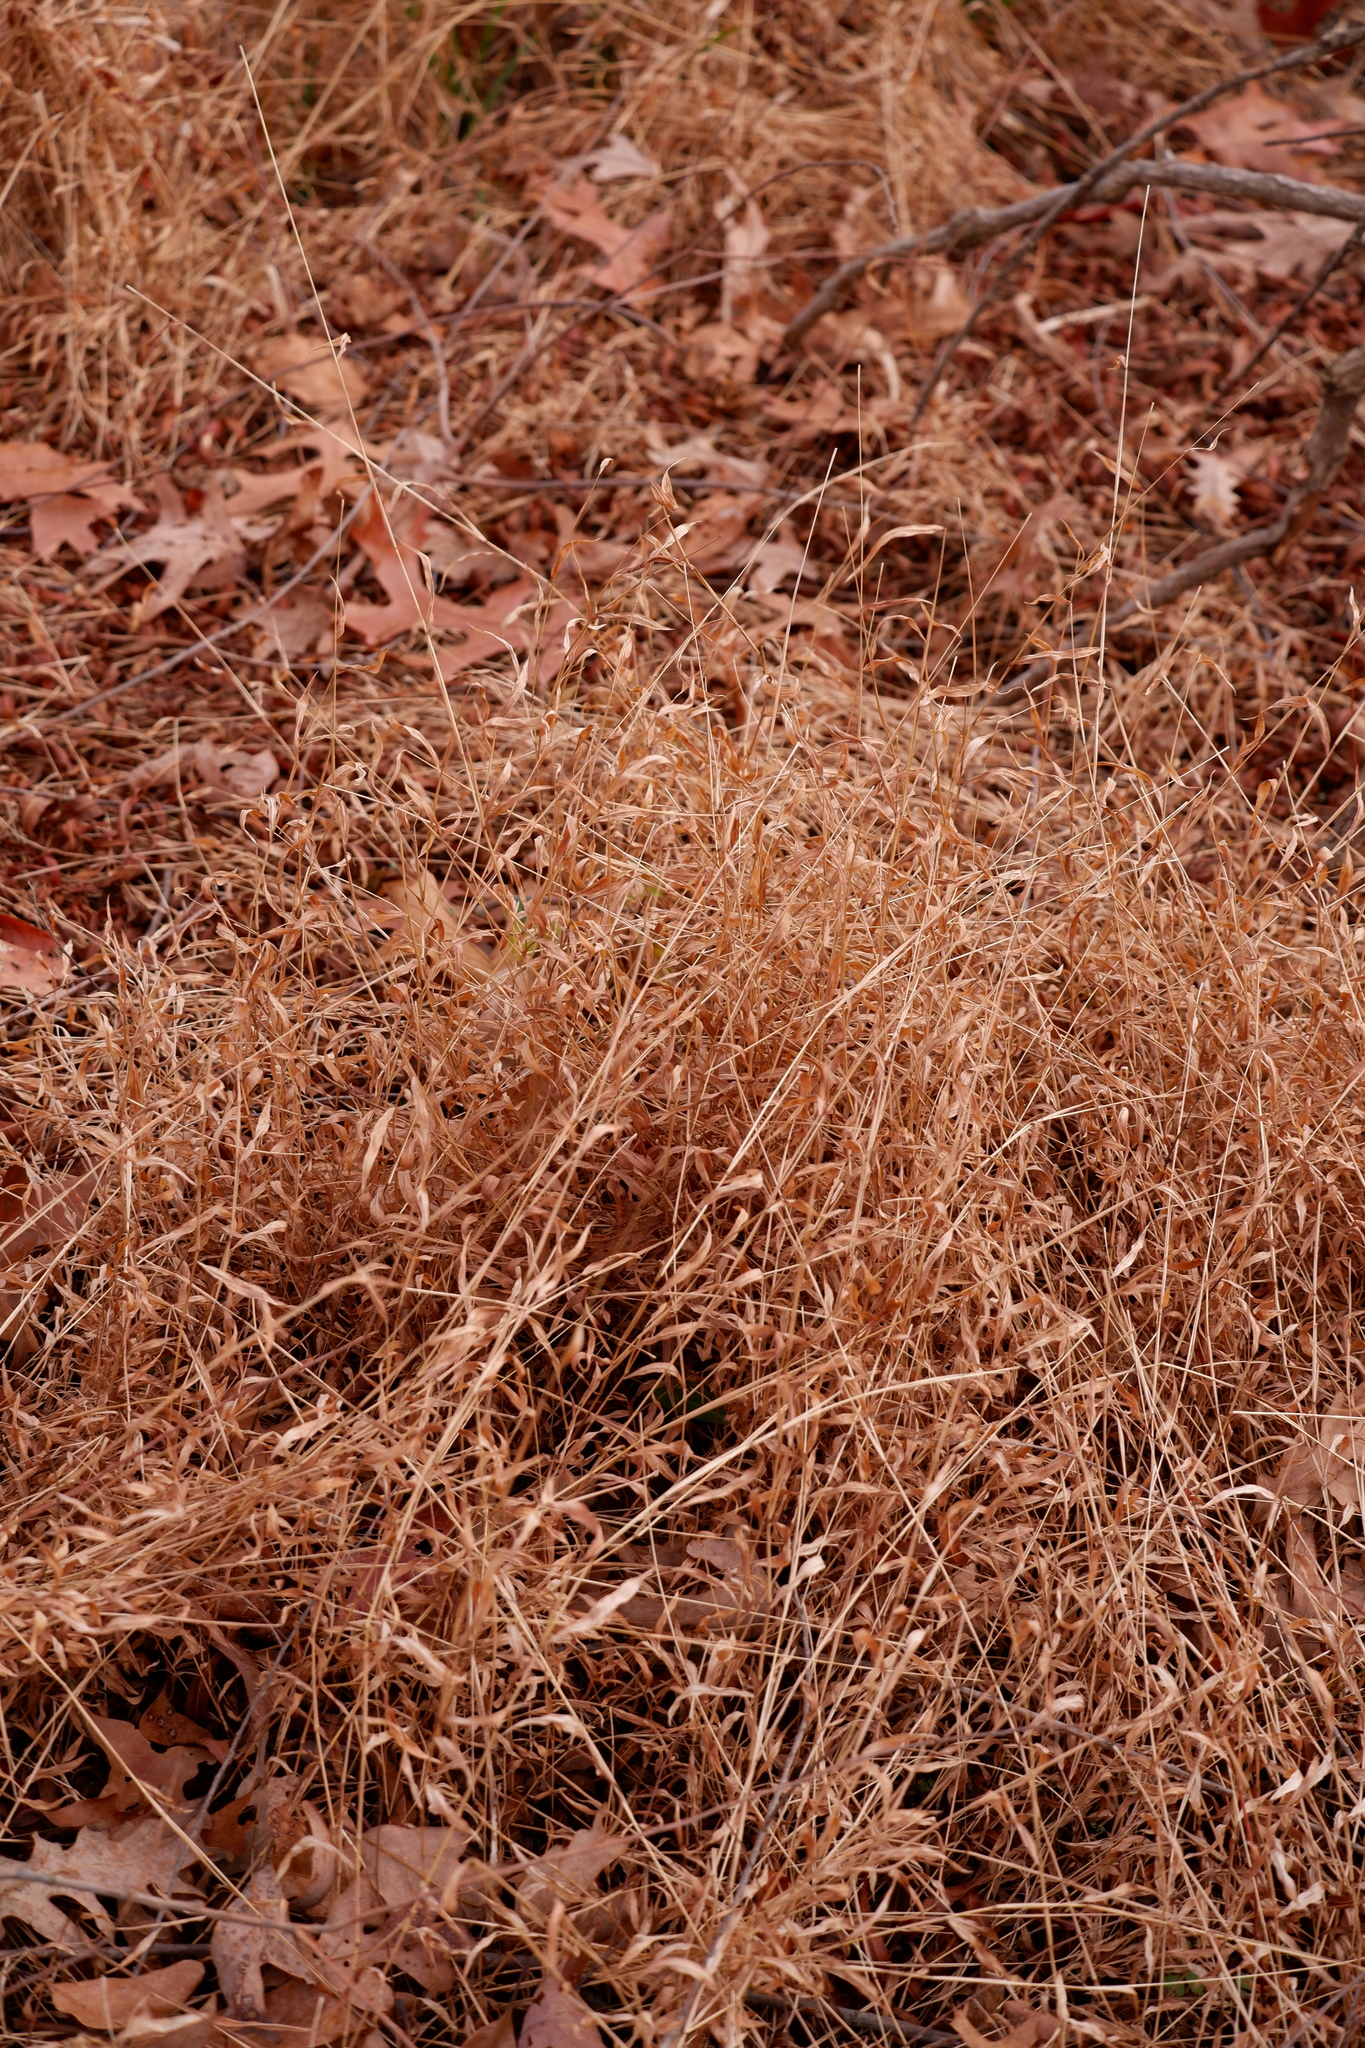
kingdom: Plantae
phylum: Tracheophyta
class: Liliopsida
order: Poales
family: Poaceae
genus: Microstegium
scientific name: Microstegium vimineum
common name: Japanese stiltgrass
